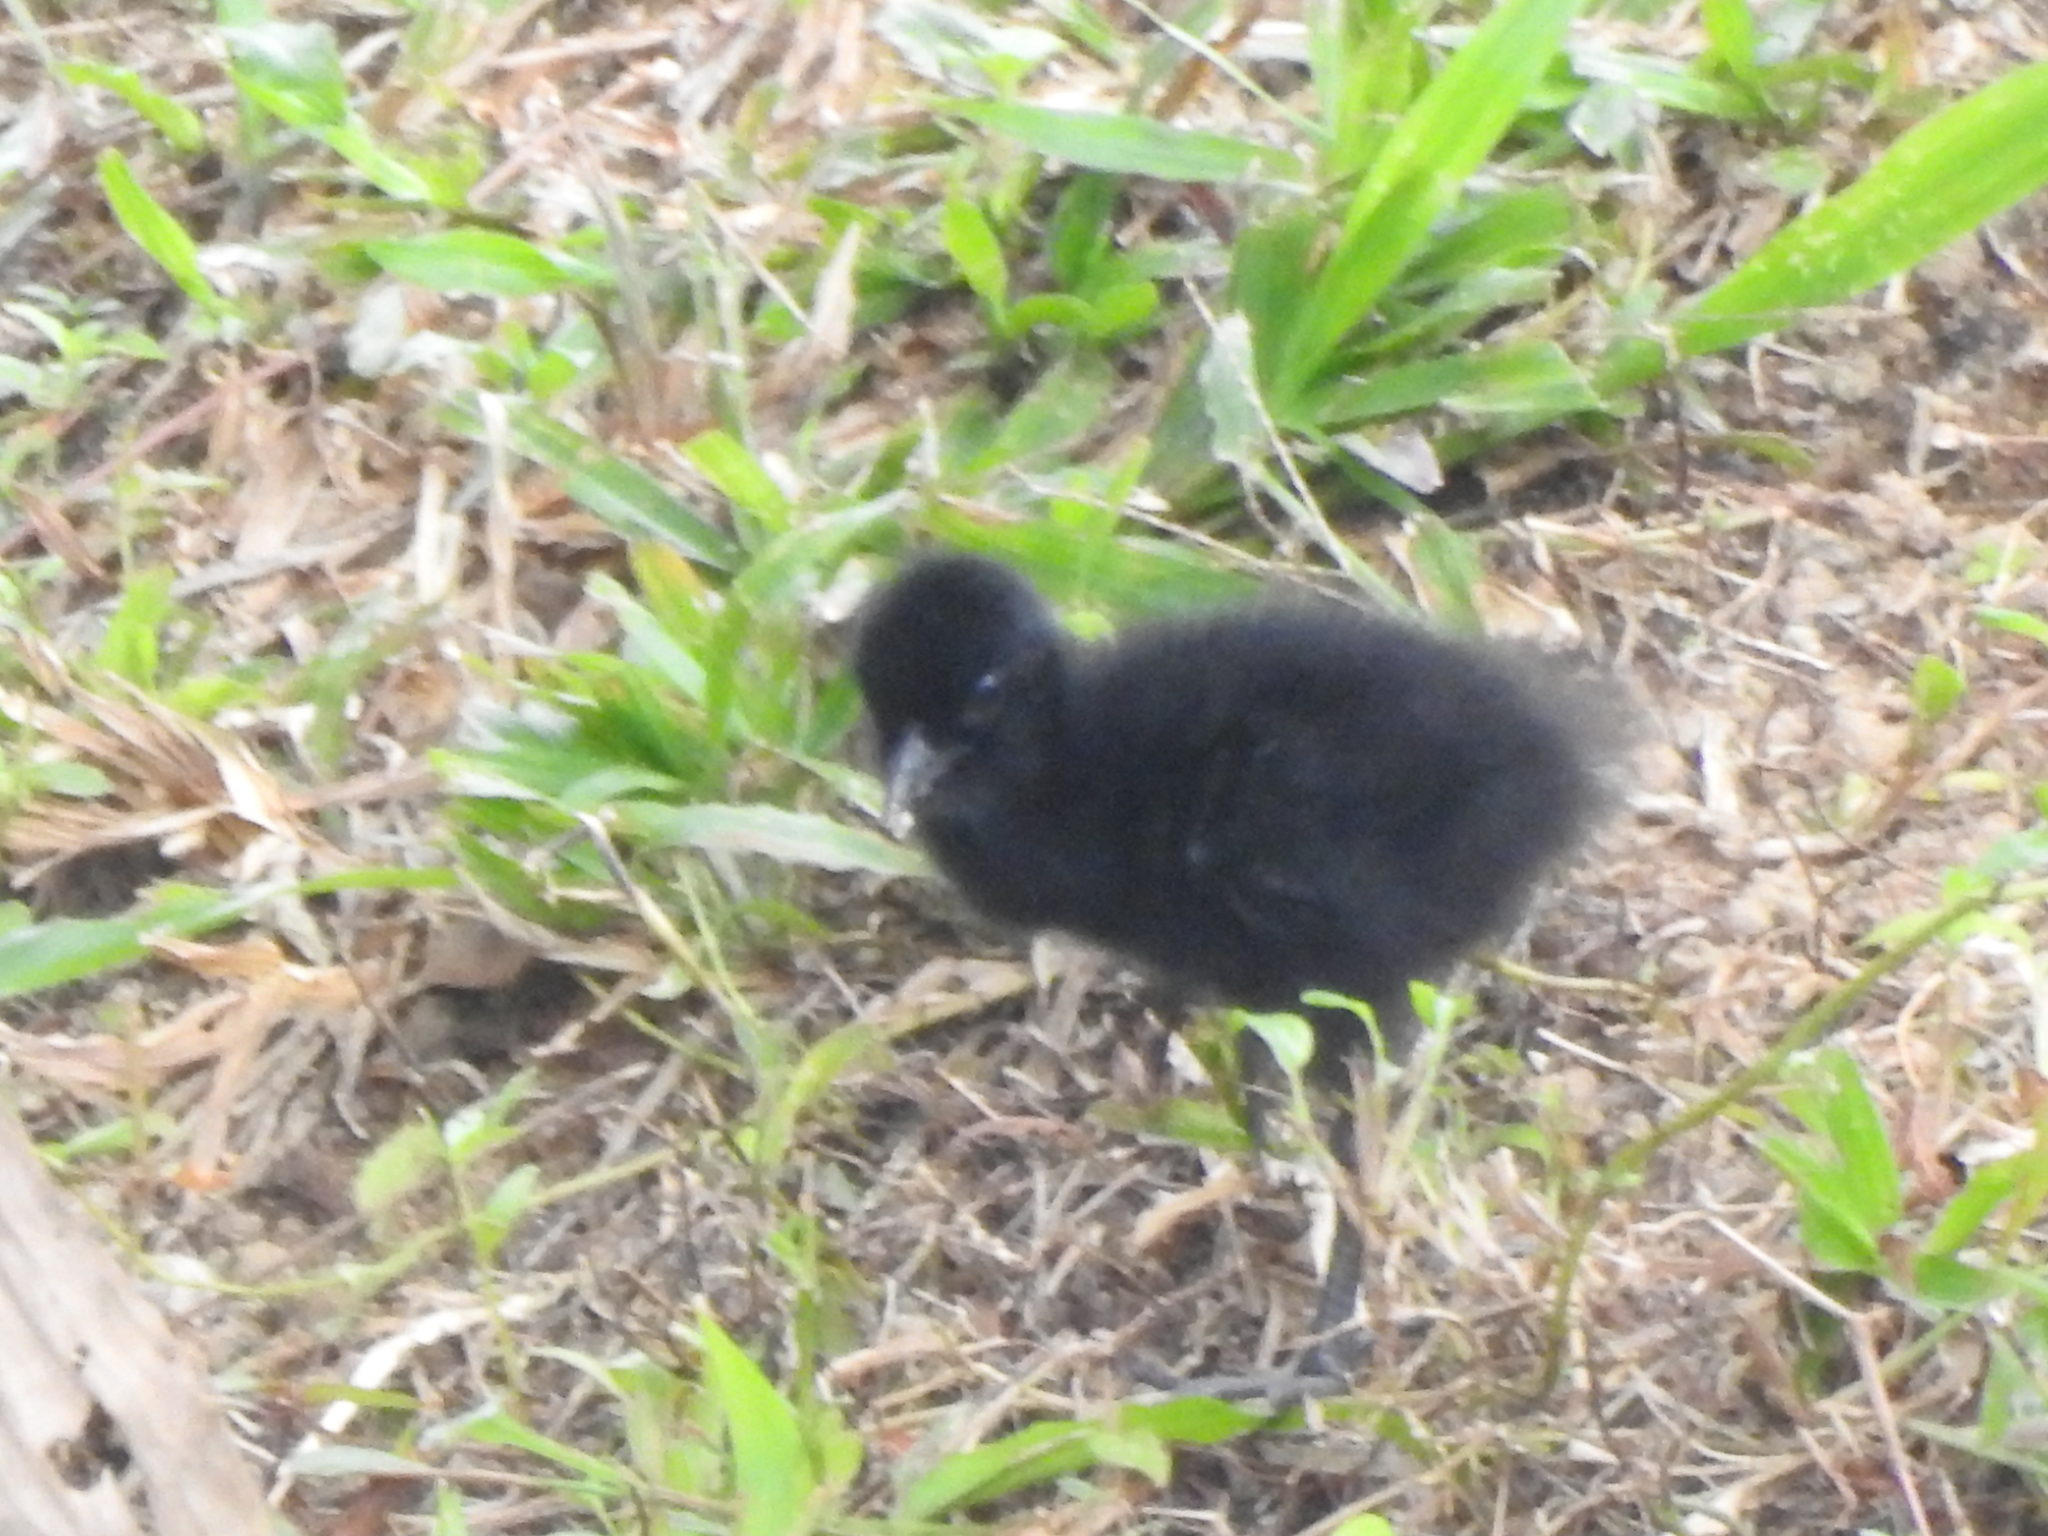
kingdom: Animalia
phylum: Chordata
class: Aves
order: Gruiformes
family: Rallidae
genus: Amaurornis
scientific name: Amaurornis phoenicurus
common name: White-breasted waterhen
